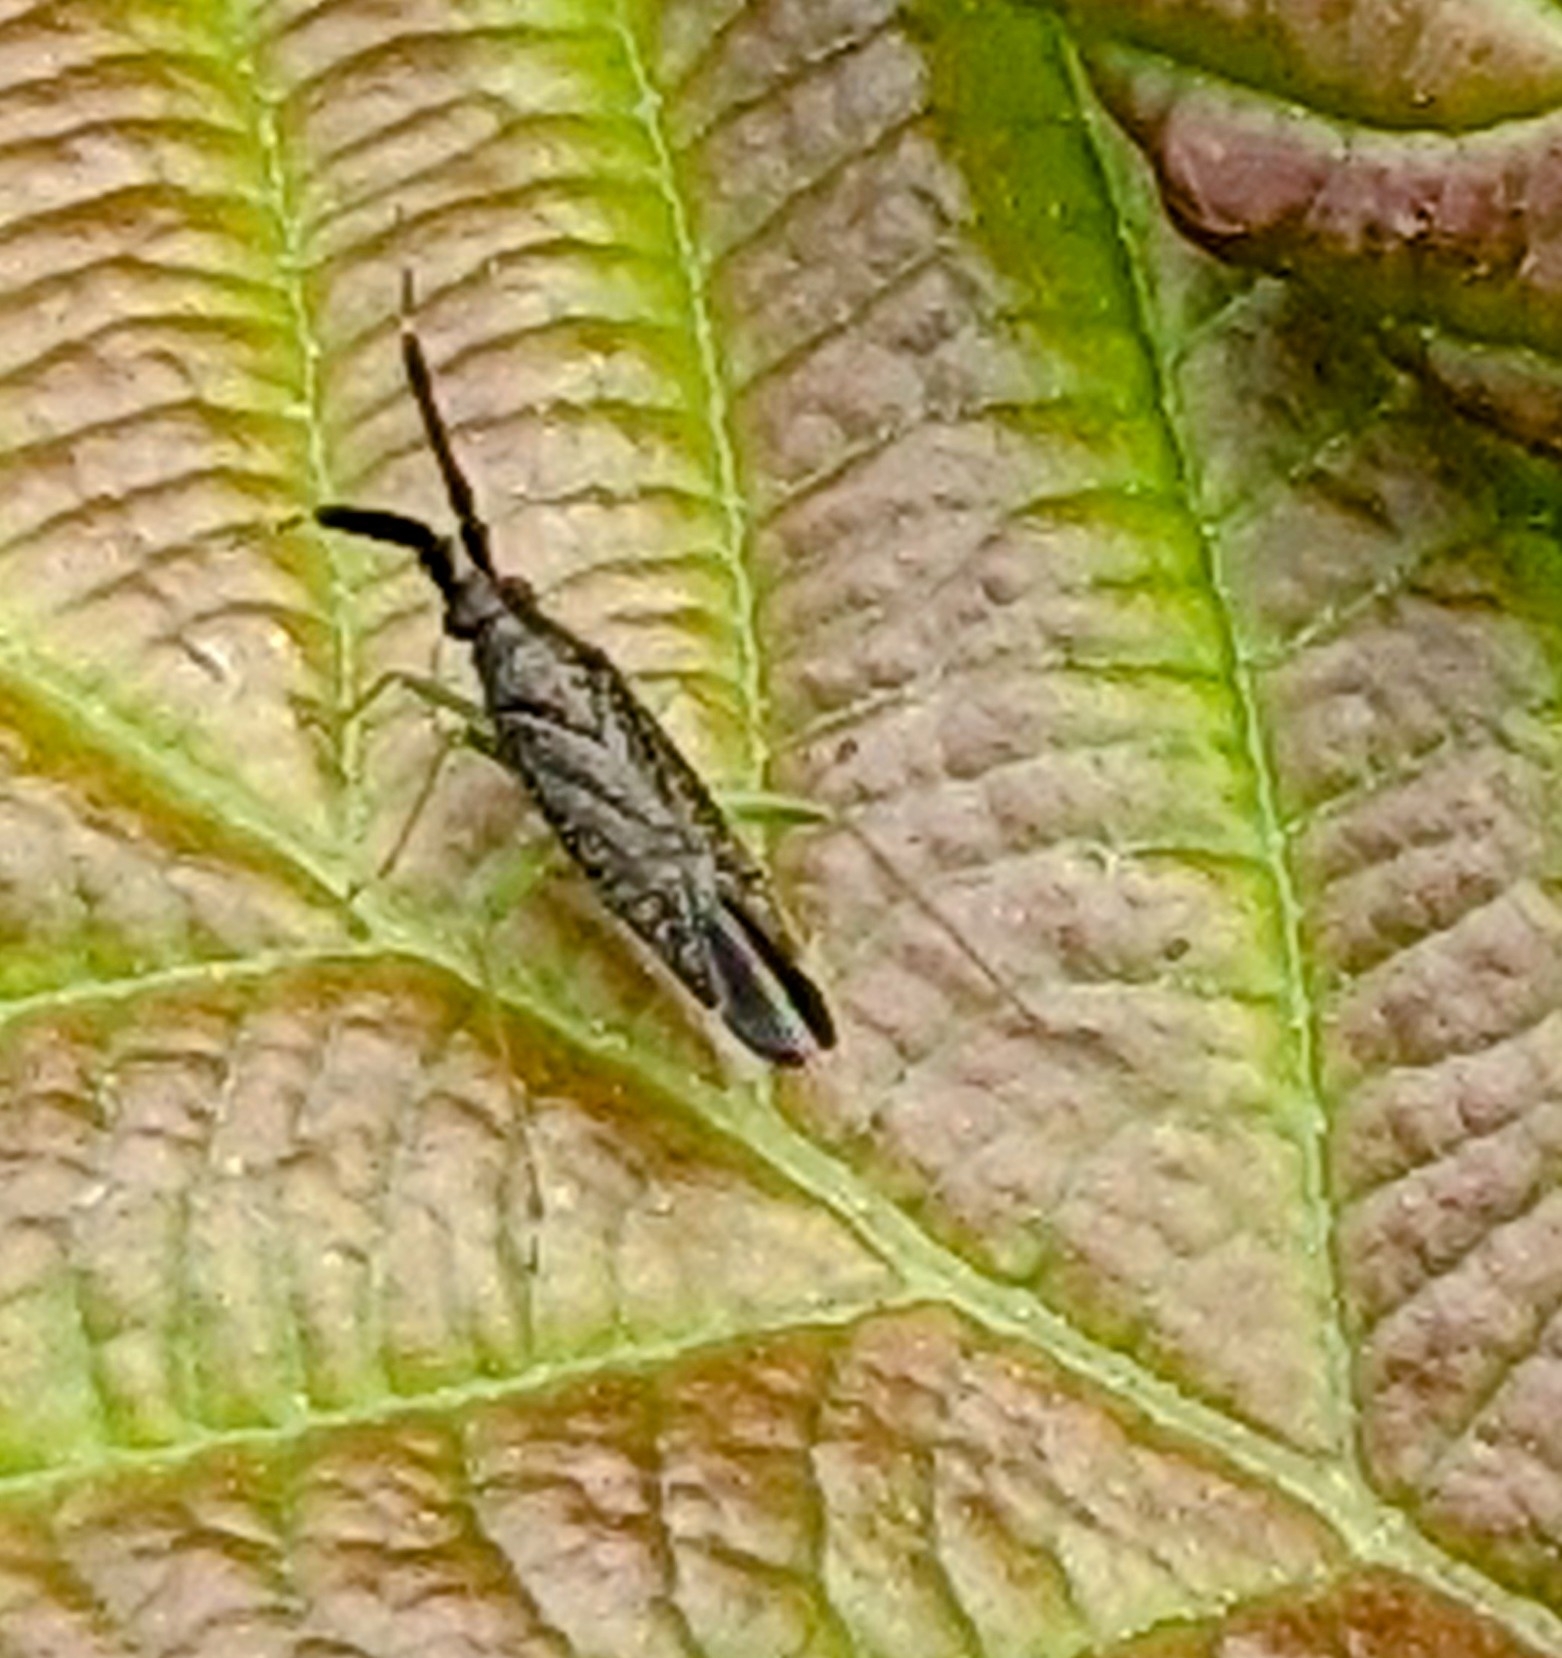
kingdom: Animalia
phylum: Arthropoda
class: Insecta
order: Hemiptera
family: Miridae
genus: Heterotoma
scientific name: Heterotoma planicornis
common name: Plant bug
